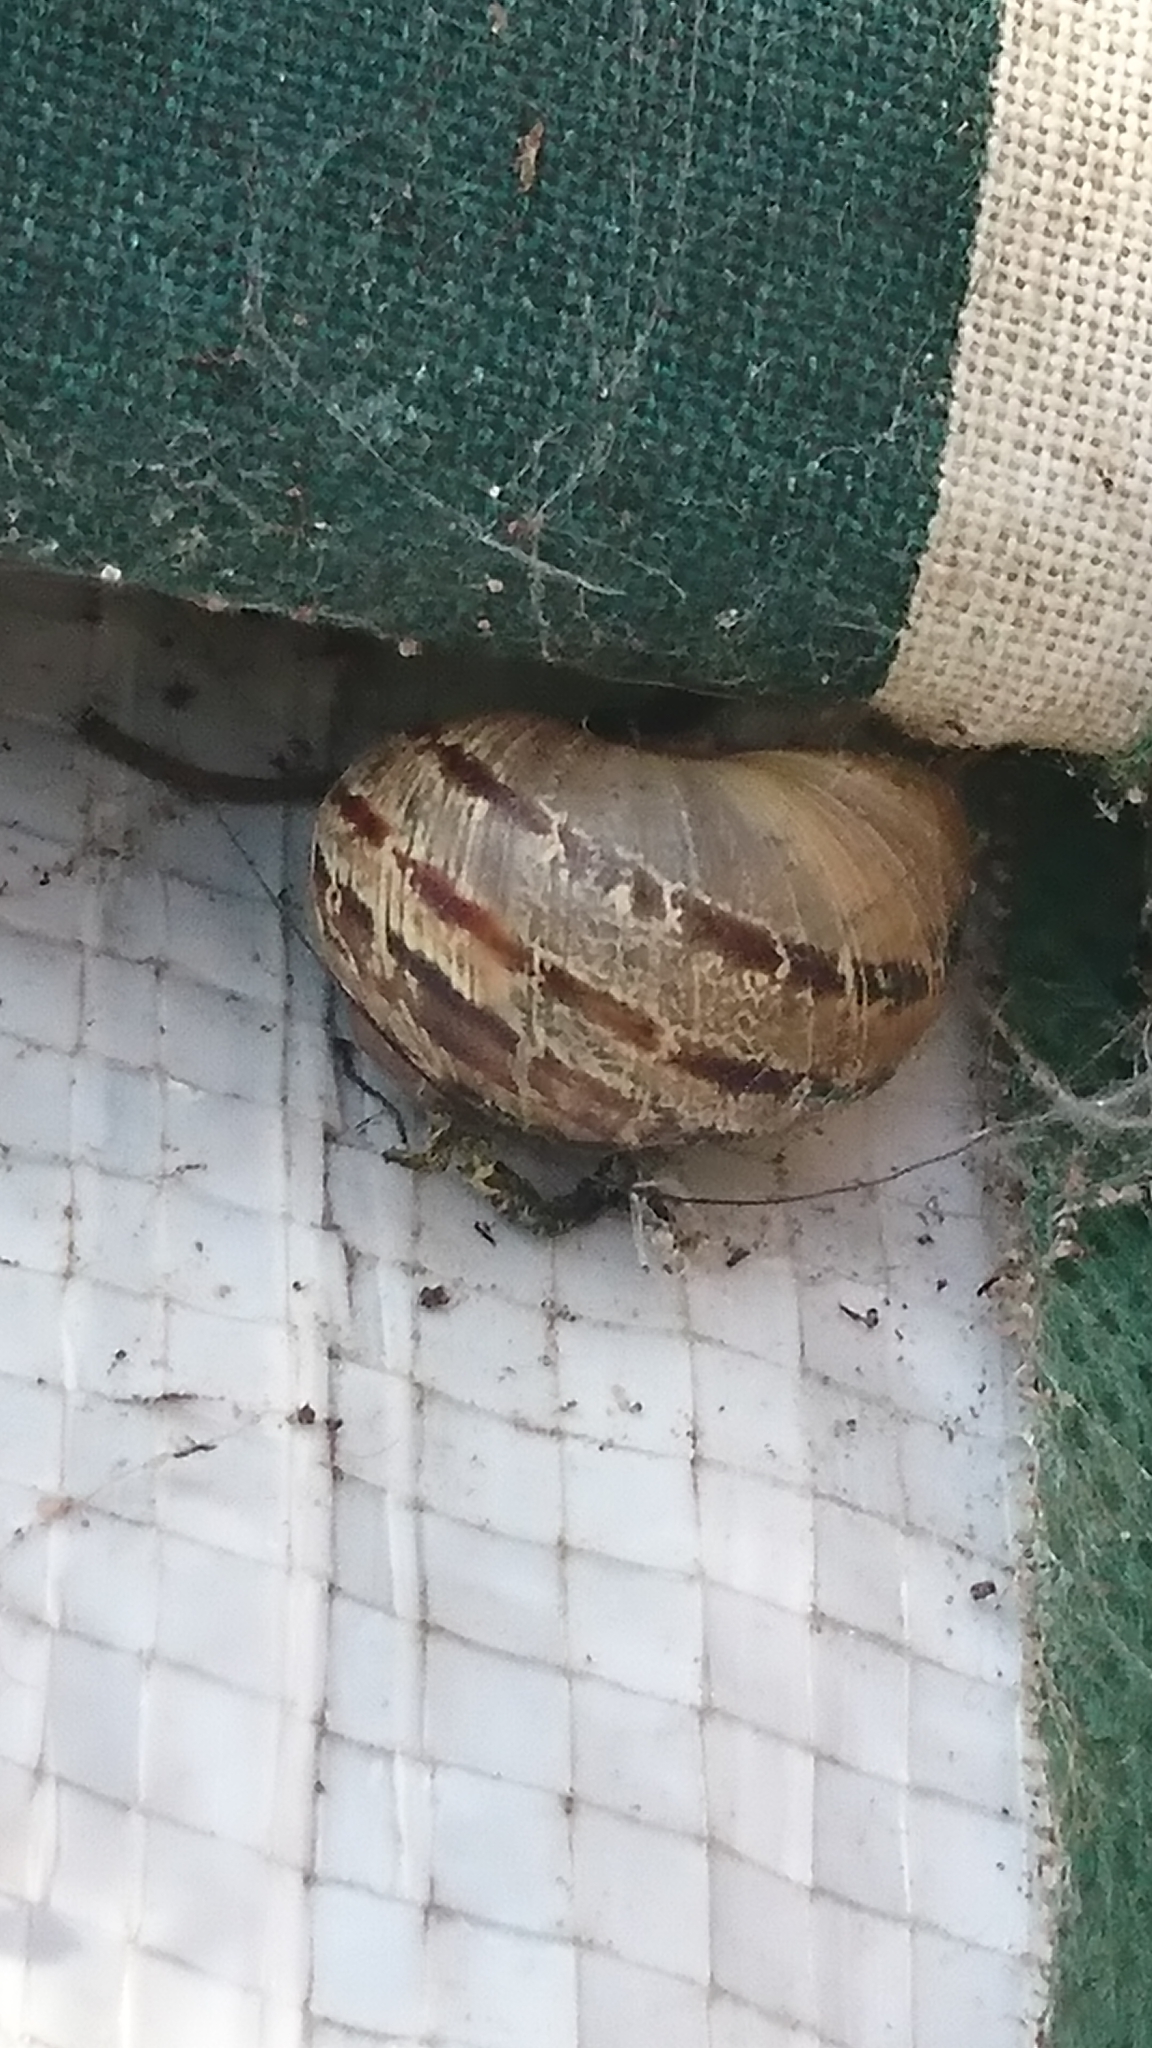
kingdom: Animalia
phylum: Mollusca
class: Gastropoda
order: Stylommatophora
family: Helicidae
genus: Cornu
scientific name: Cornu aspersum
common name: Brown garden snail
